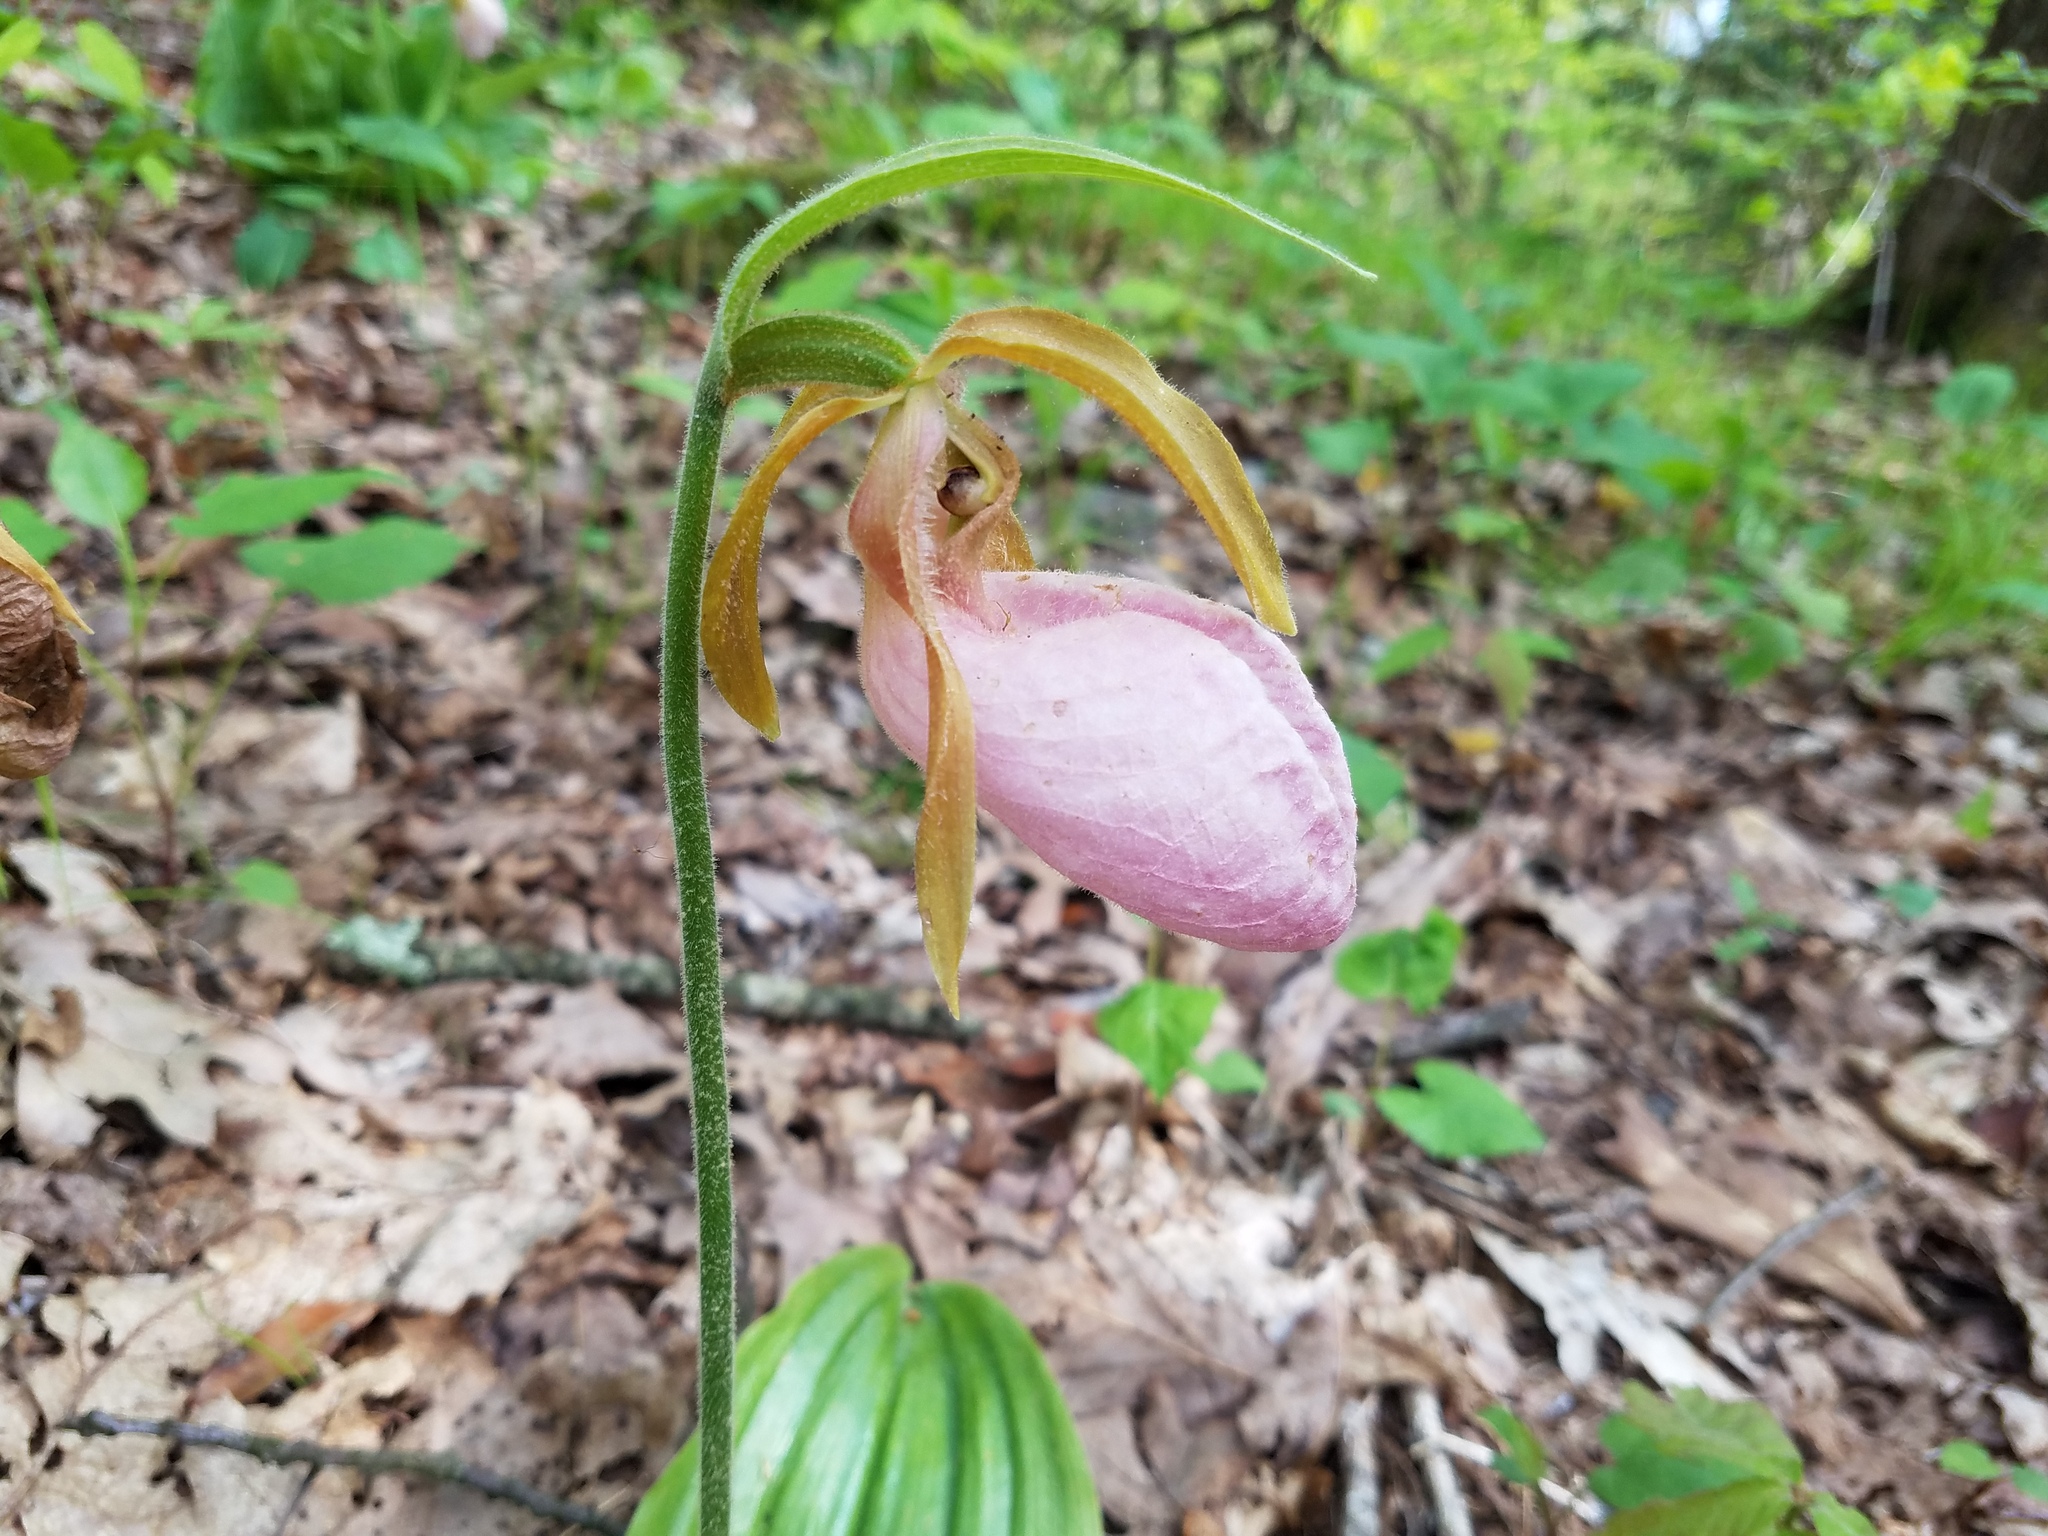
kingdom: Plantae
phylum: Tracheophyta
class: Liliopsida
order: Asparagales
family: Orchidaceae
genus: Cypripedium
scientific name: Cypripedium acaule
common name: Pink lady's-slipper
